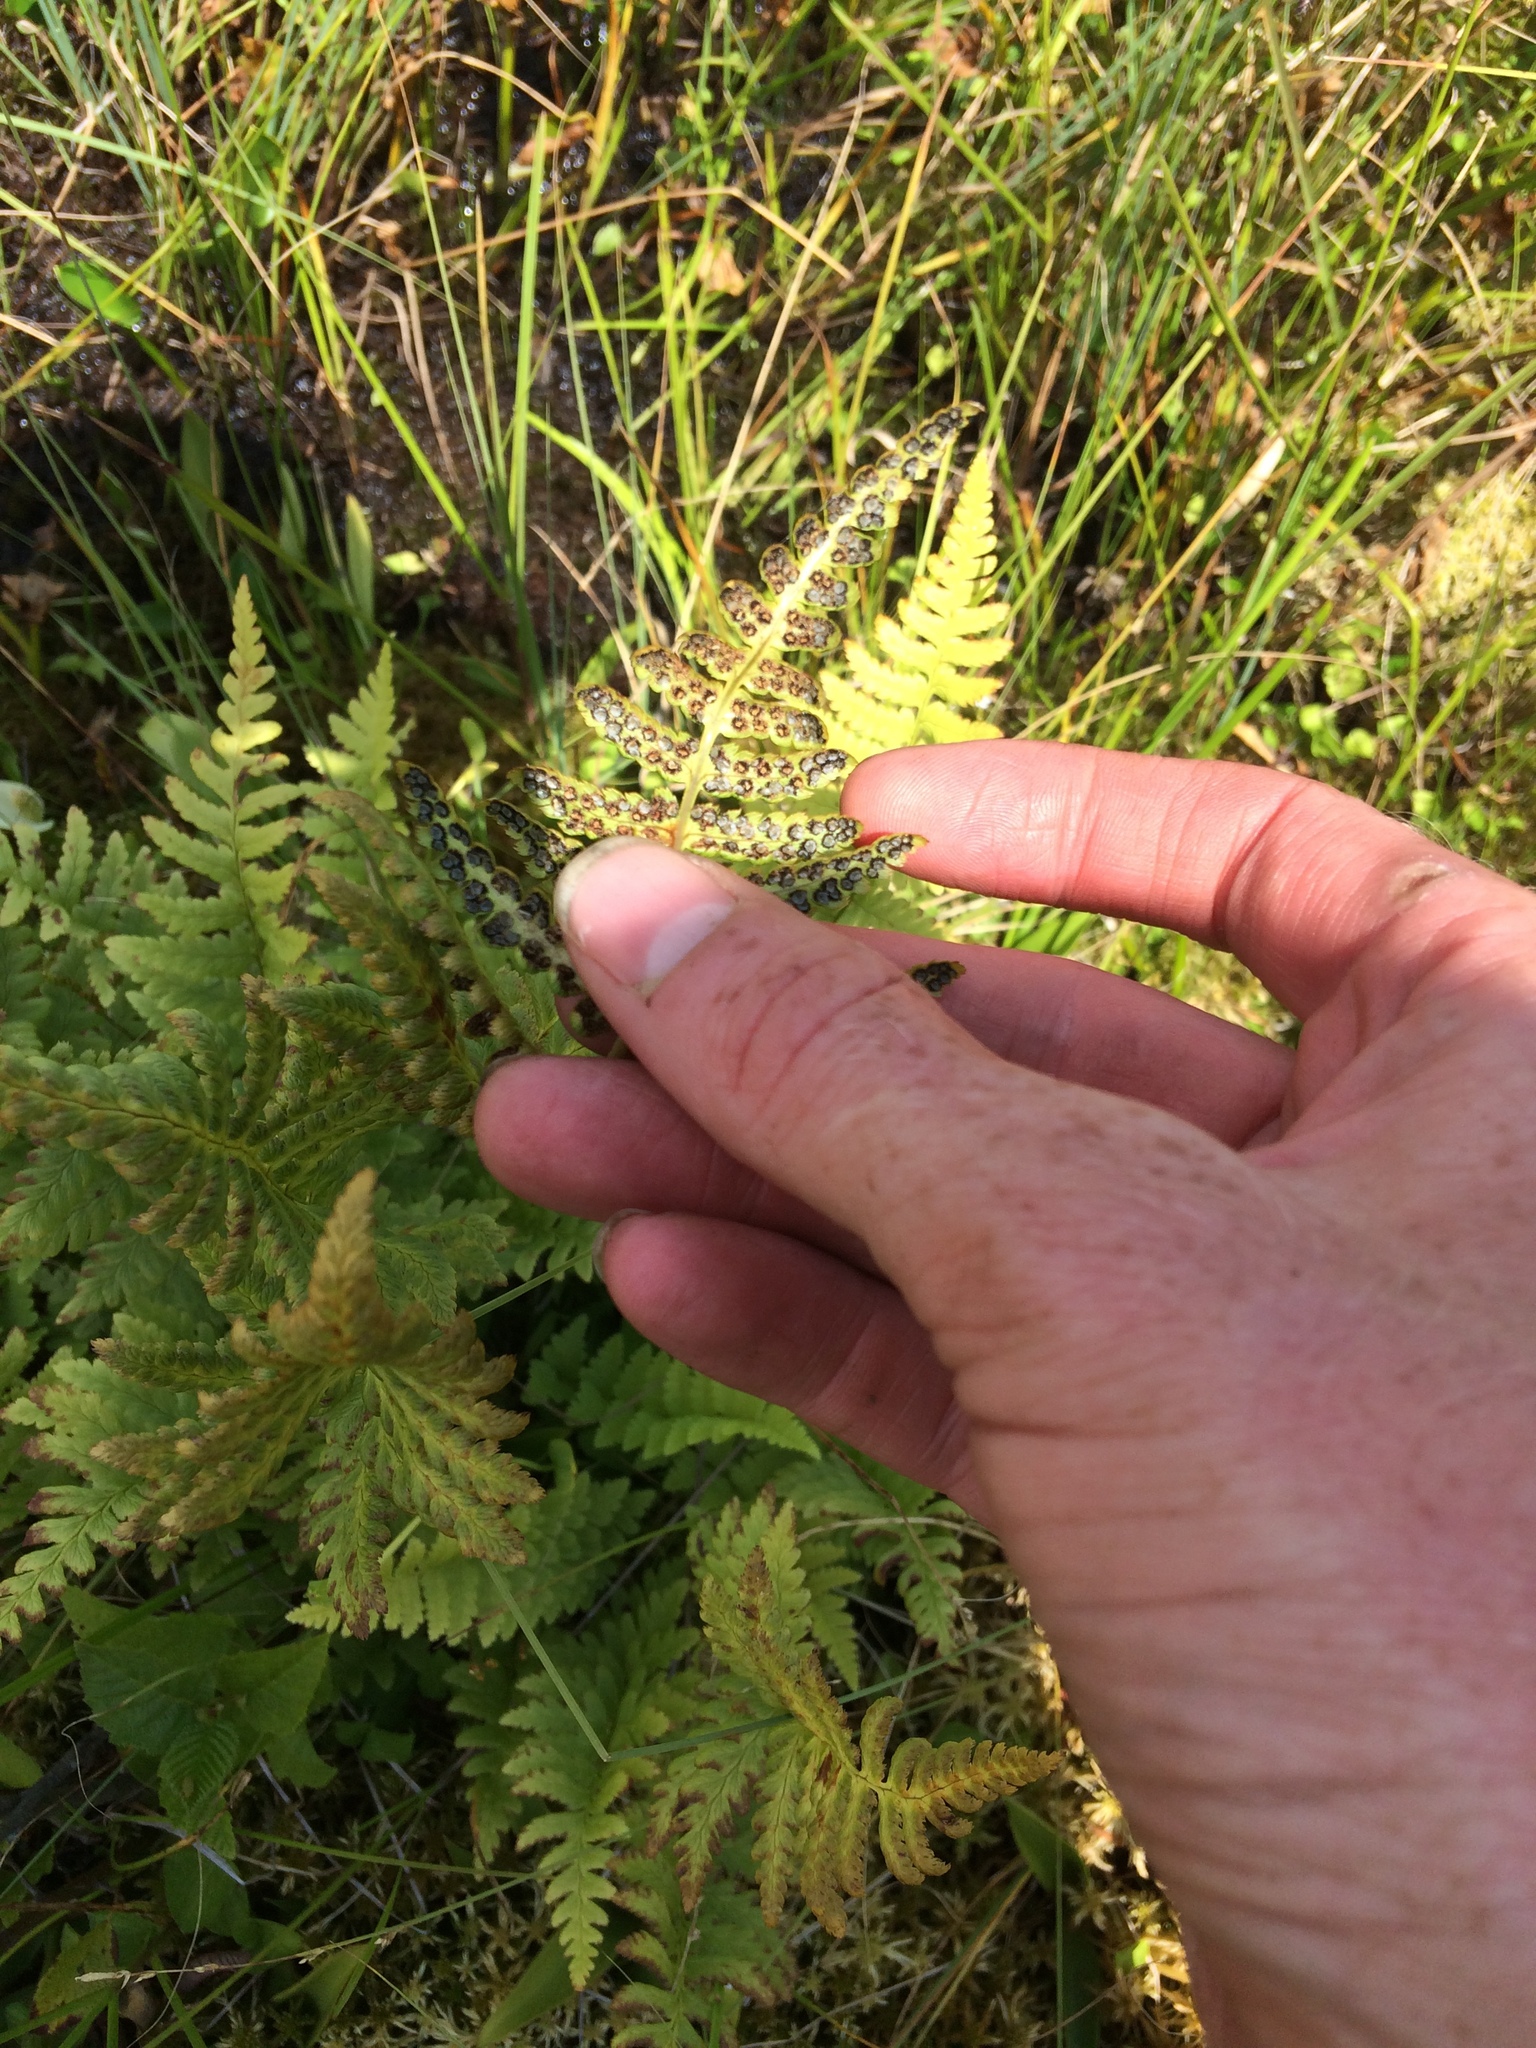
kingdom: Plantae
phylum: Tracheophyta
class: Polypodiopsida
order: Polypodiales
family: Dryopteridaceae
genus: Dryopteris
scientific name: Dryopteris cristata
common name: Crested wood fern
